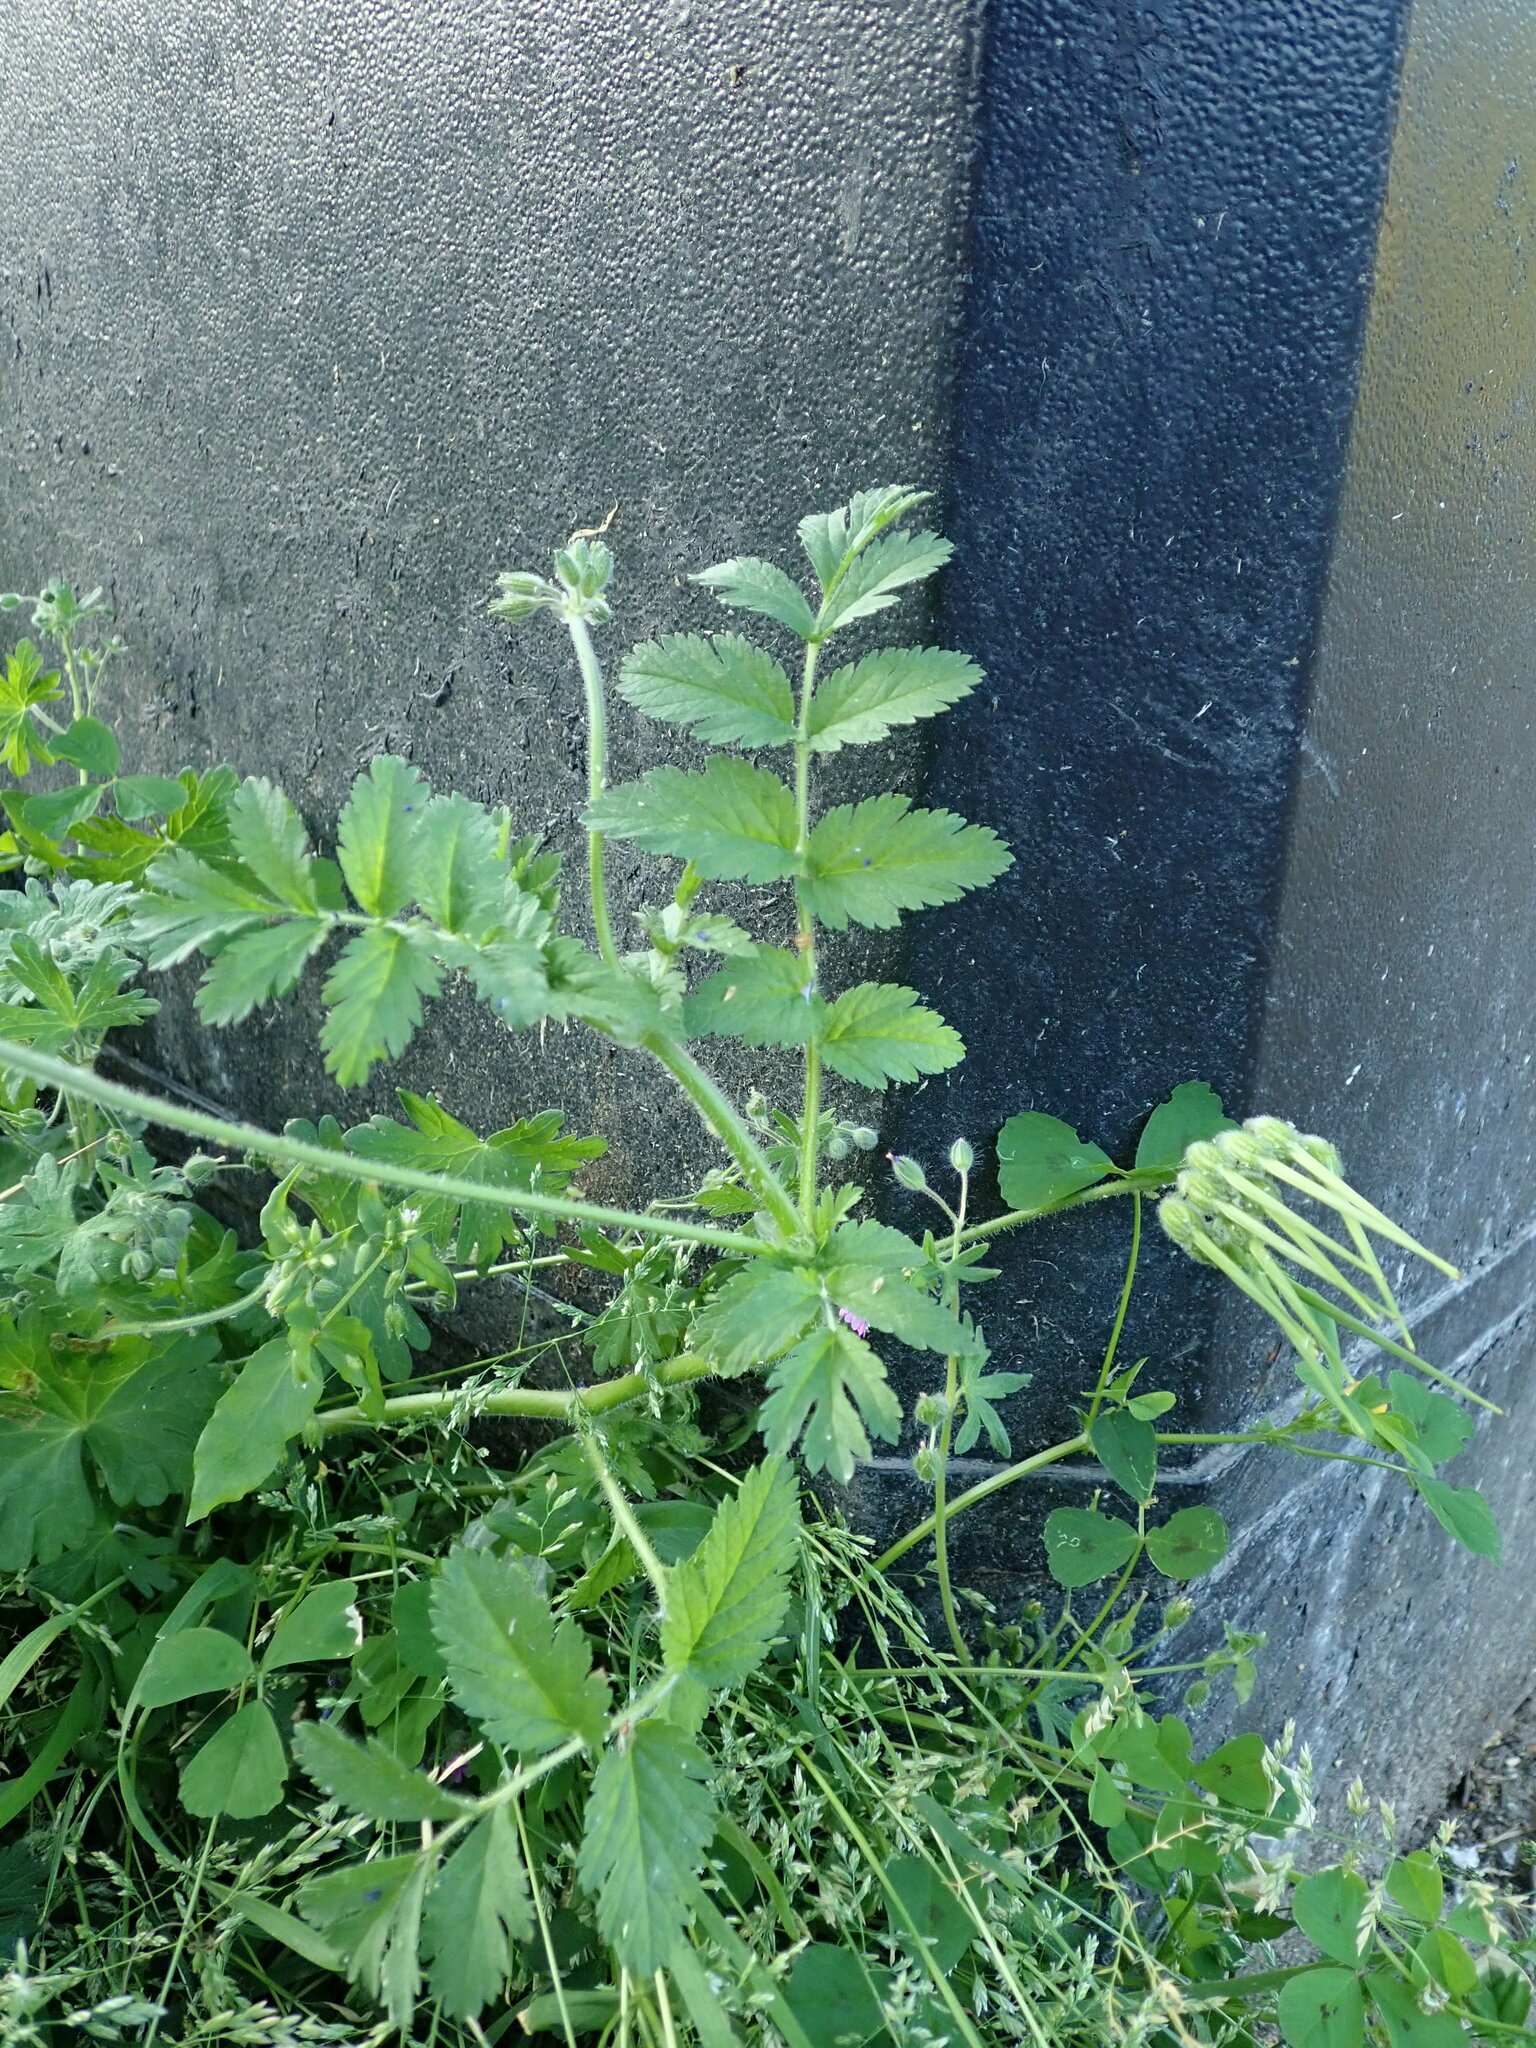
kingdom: Plantae
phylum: Tracheophyta
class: Magnoliopsida
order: Geraniales
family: Geraniaceae
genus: Erodium
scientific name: Erodium moschatum
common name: Musk stork's-bill
